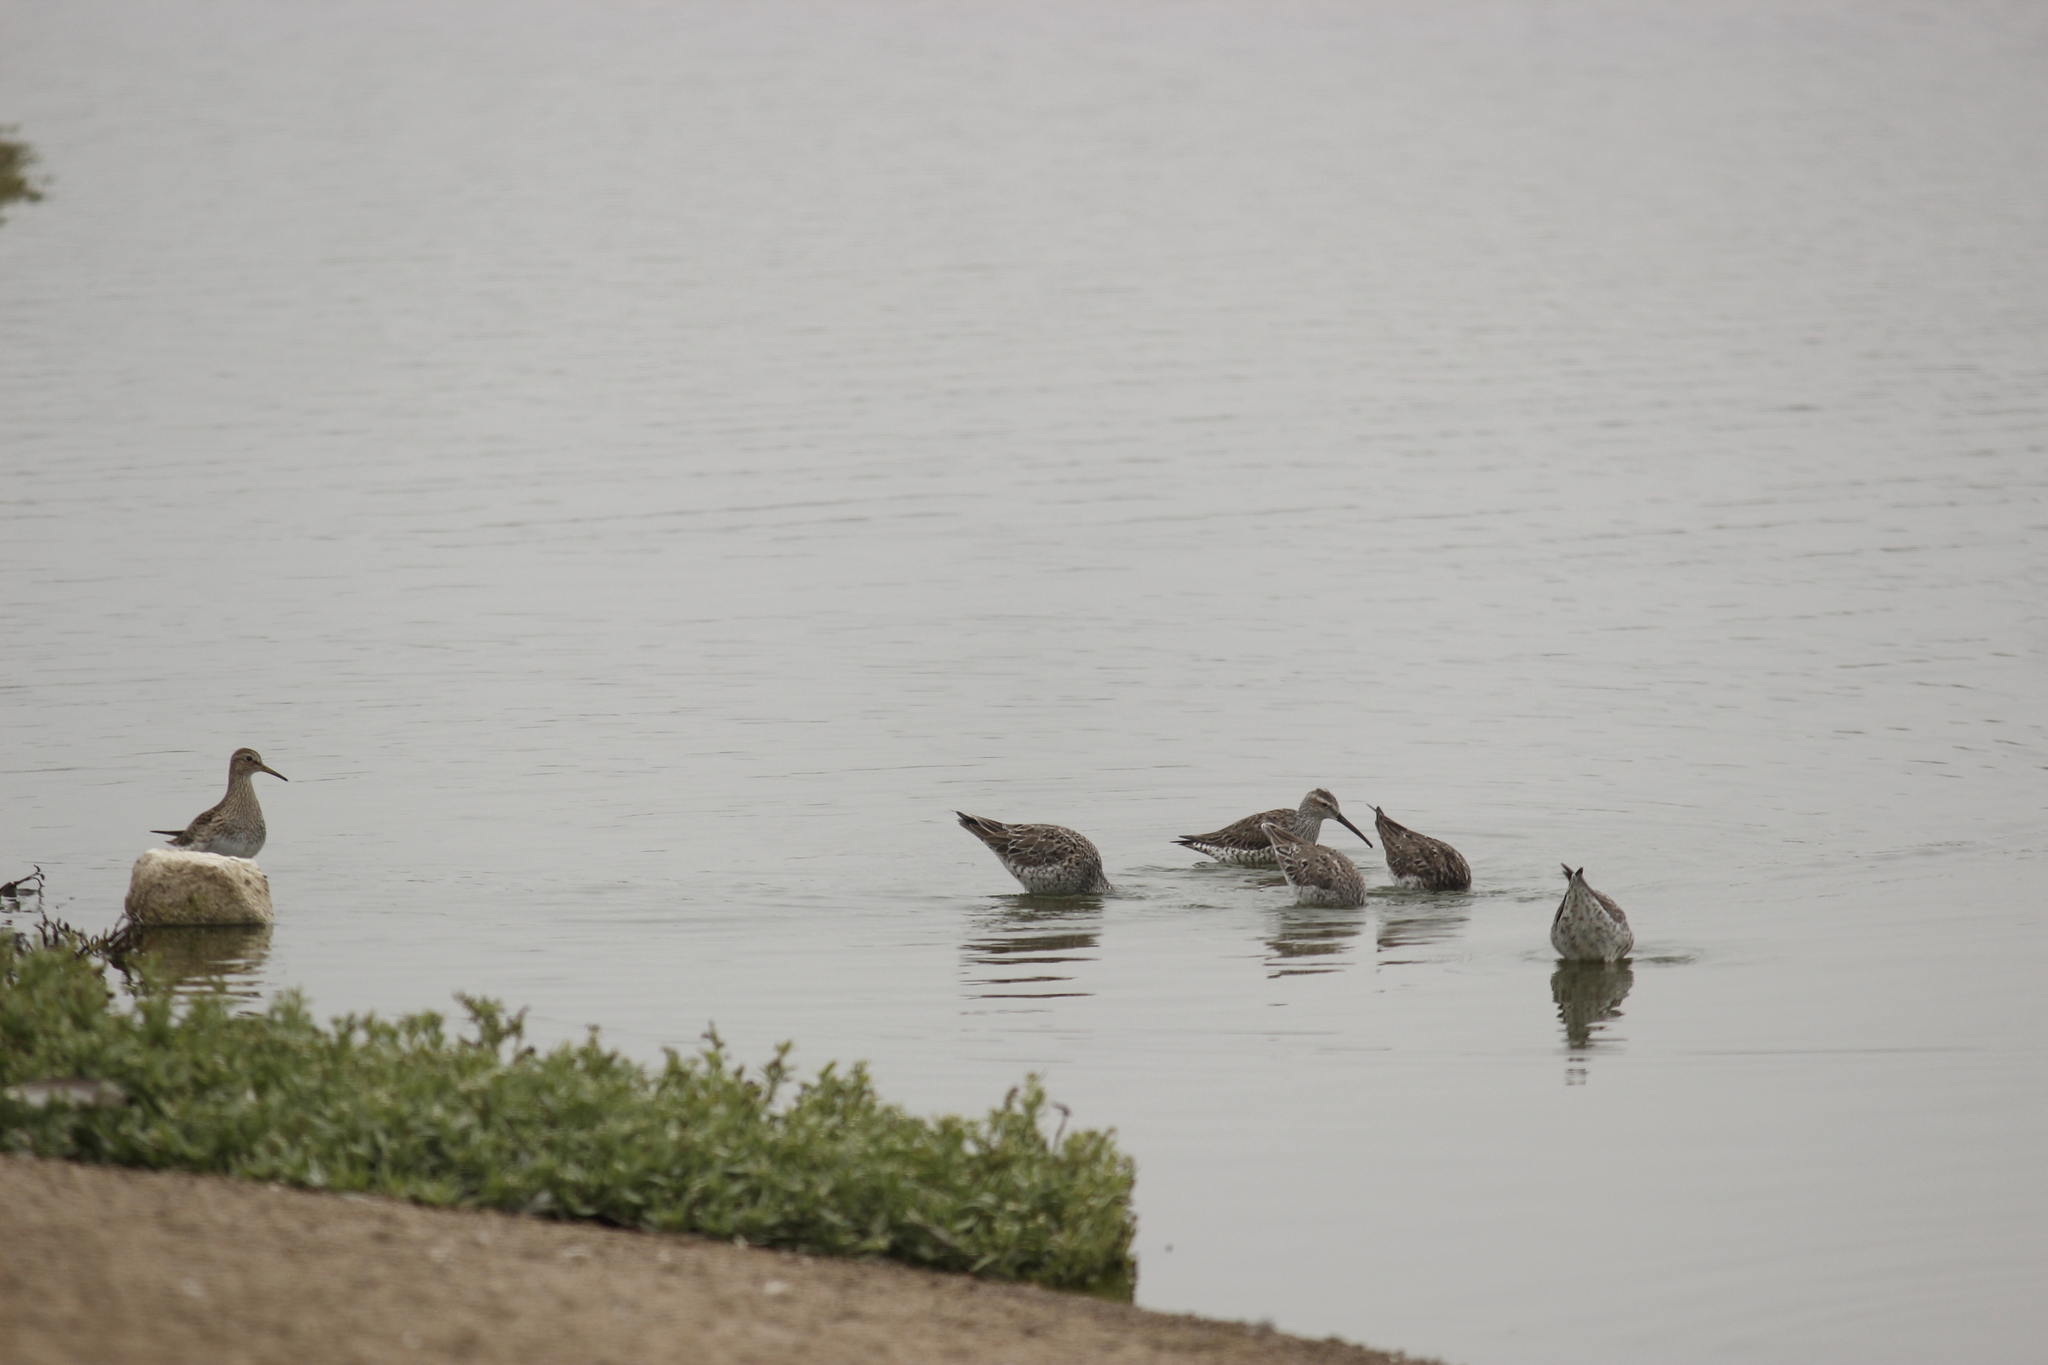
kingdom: Animalia
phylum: Chordata
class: Aves
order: Charadriiformes
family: Scolopacidae
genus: Calidris
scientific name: Calidris himantopus
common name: Stilt sandpiper
